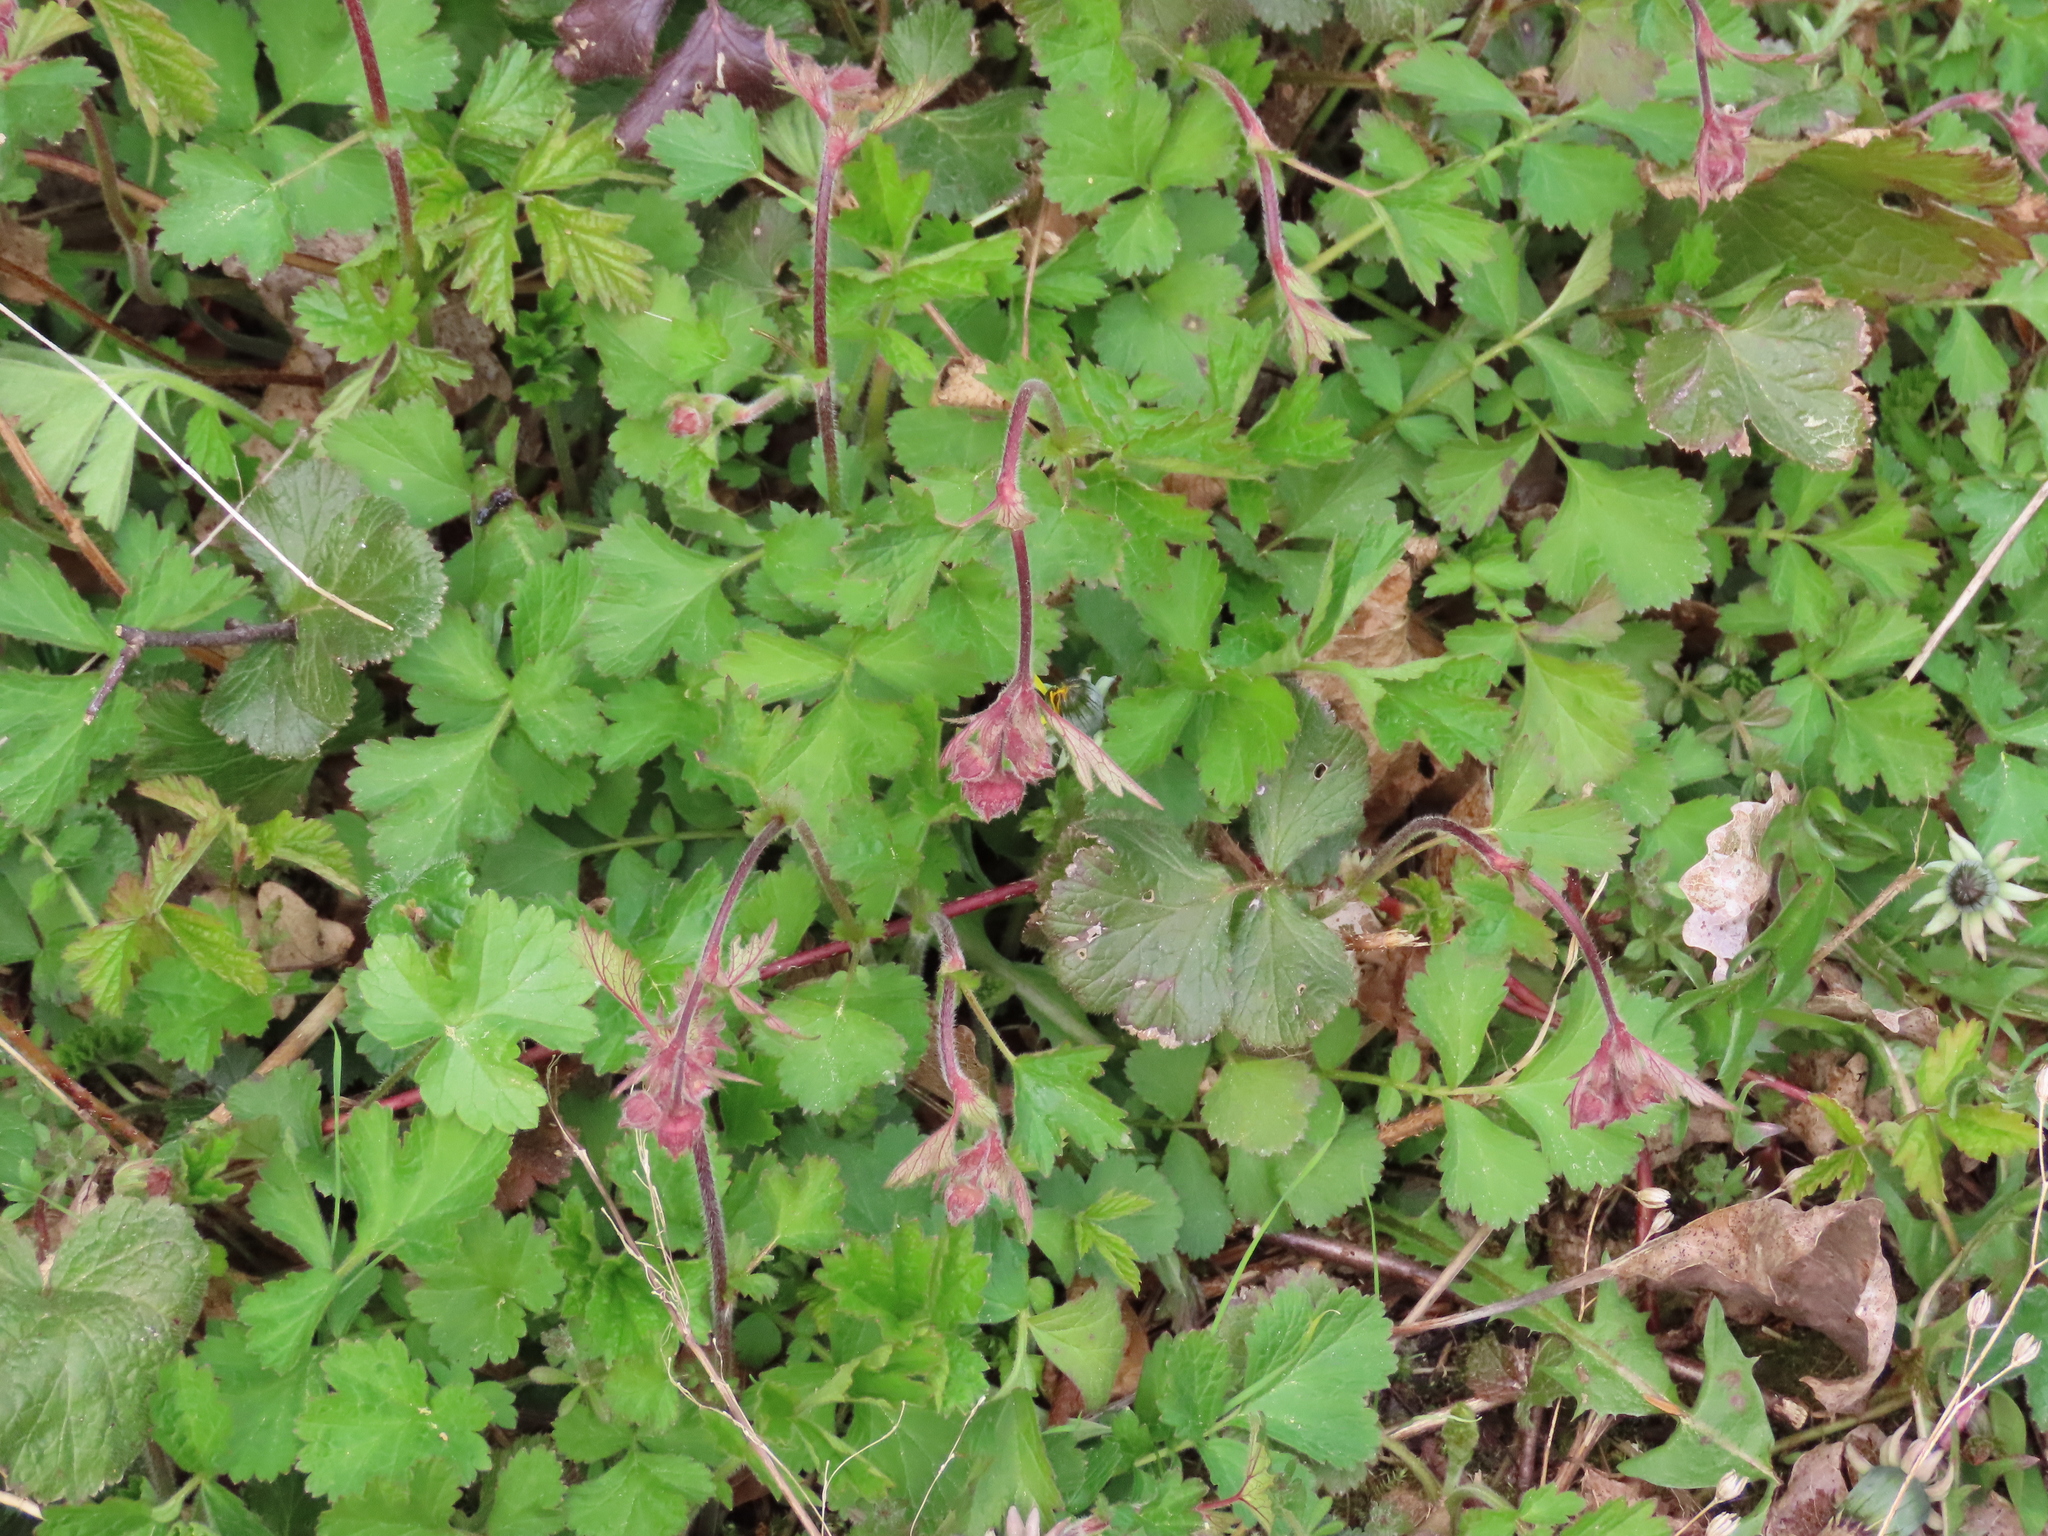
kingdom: Plantae
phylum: Tracheophyta
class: Magnoliopsida
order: Rosales
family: Rosaceae
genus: Geum
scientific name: Geum rivale
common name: Water avens
